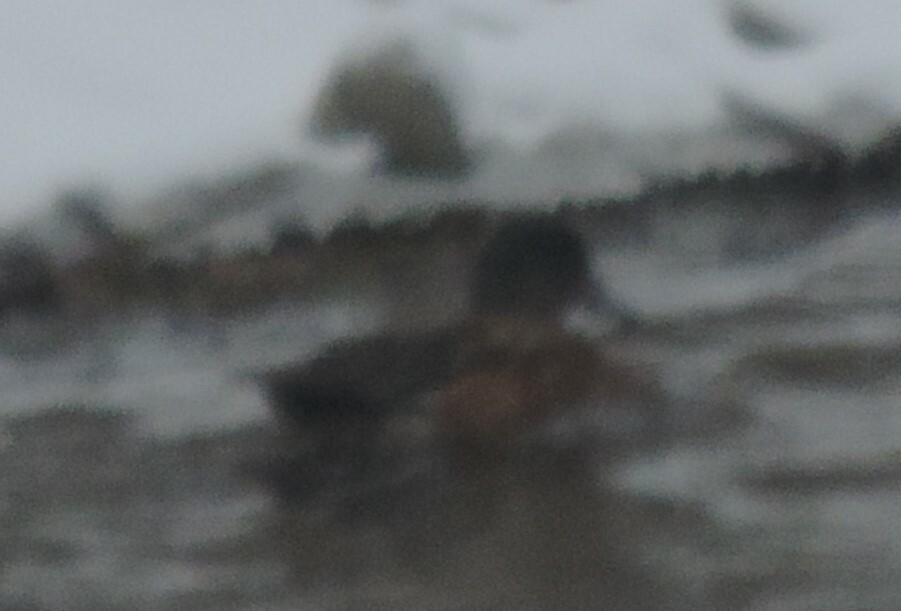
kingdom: Animalia
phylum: Chordata
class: Aves
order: Anseriformes
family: Anatidae
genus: Mareca
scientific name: Mareca americana
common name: American wigeon
